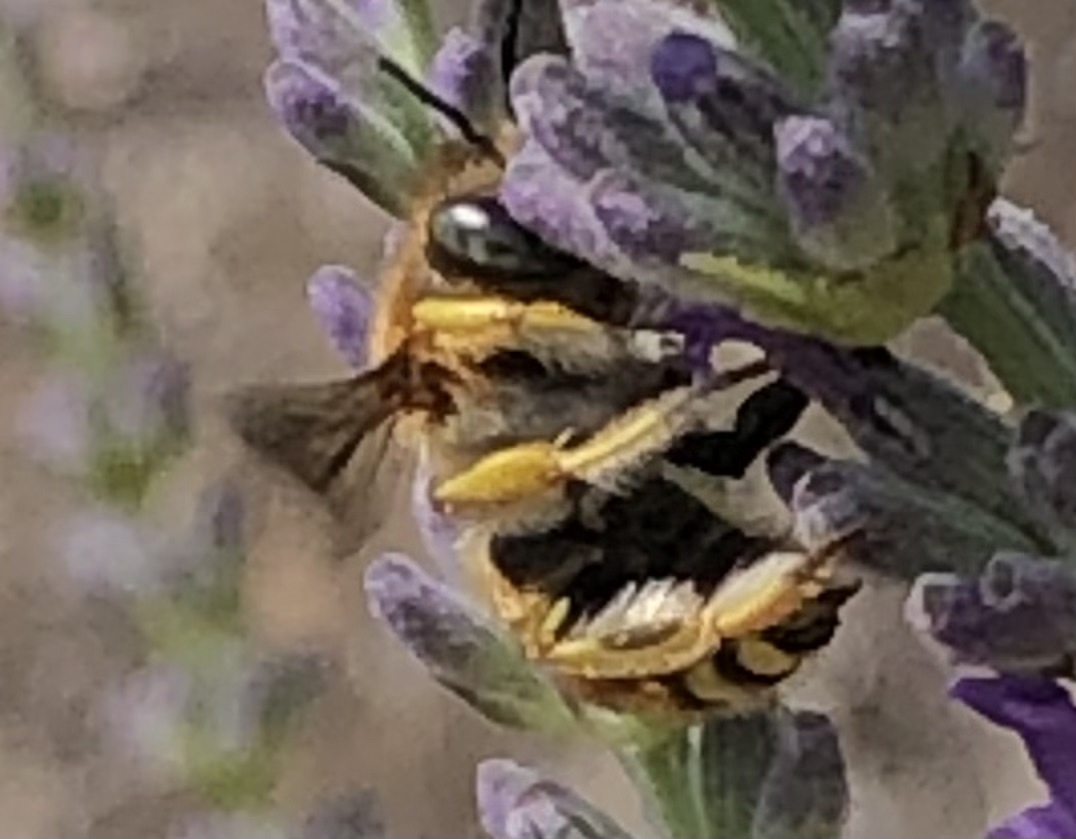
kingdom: Animalia
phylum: Arthropoda
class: Insecta
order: Hymenoptera
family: Megachilidae
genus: Anthidium
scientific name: Anthidium manicatum
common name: Wool carder bee
